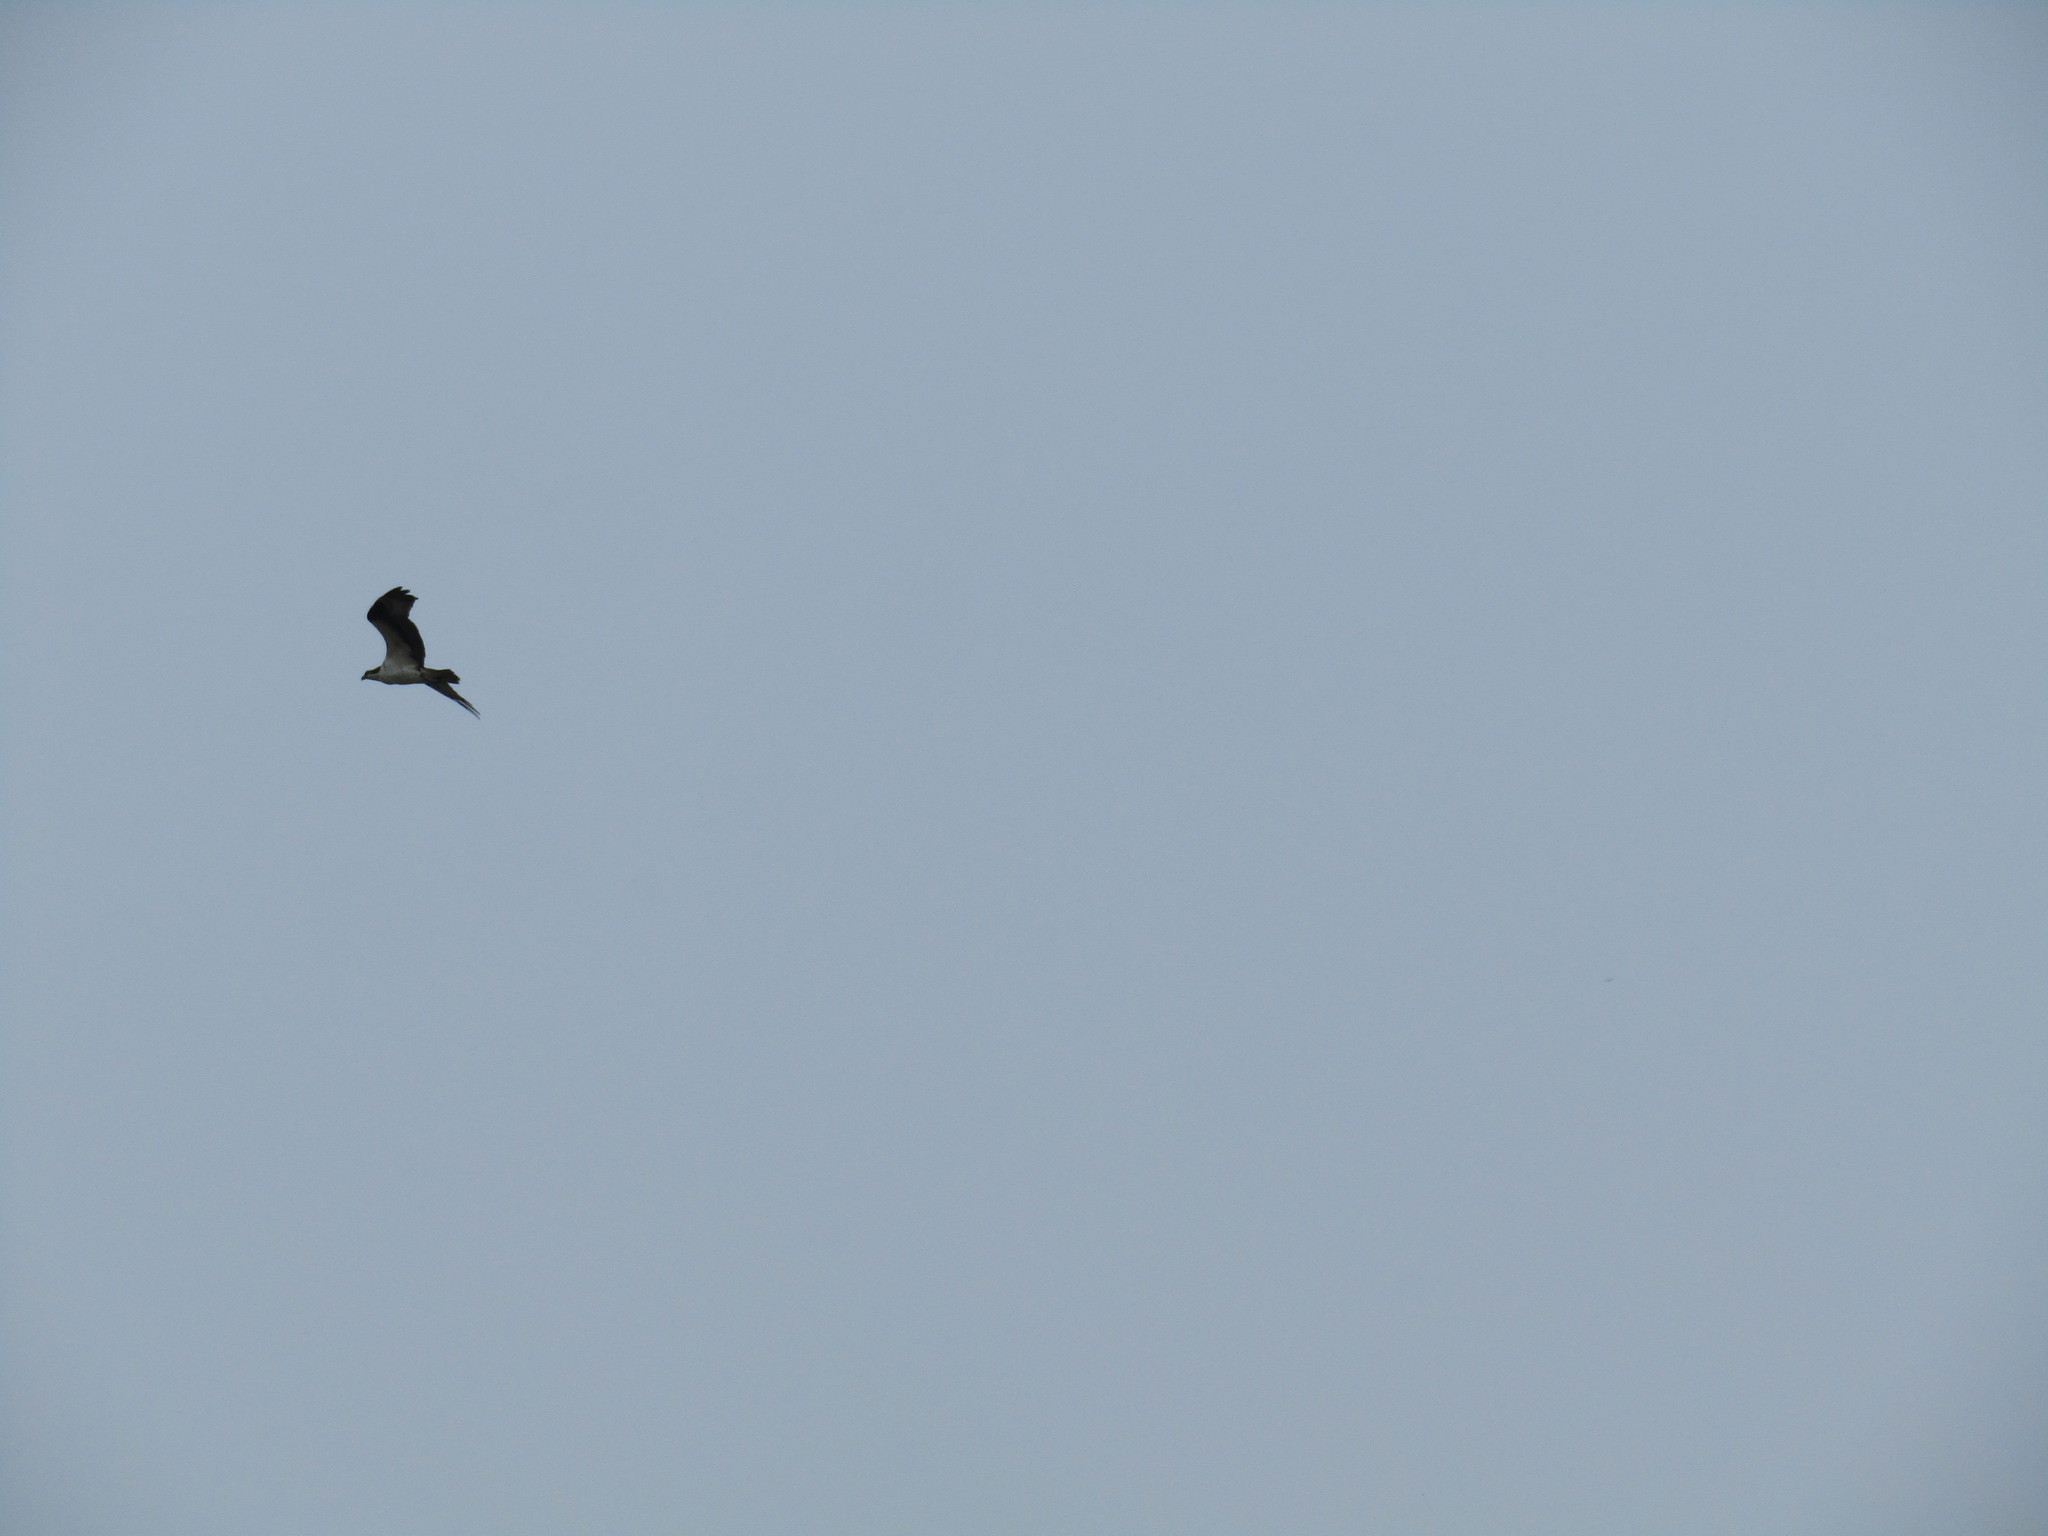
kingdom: Animalia
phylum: Chordata
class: Aves
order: Accipitriformes
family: Pandionidae
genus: Pandion
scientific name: Pandion haliaetus
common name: Osprey
